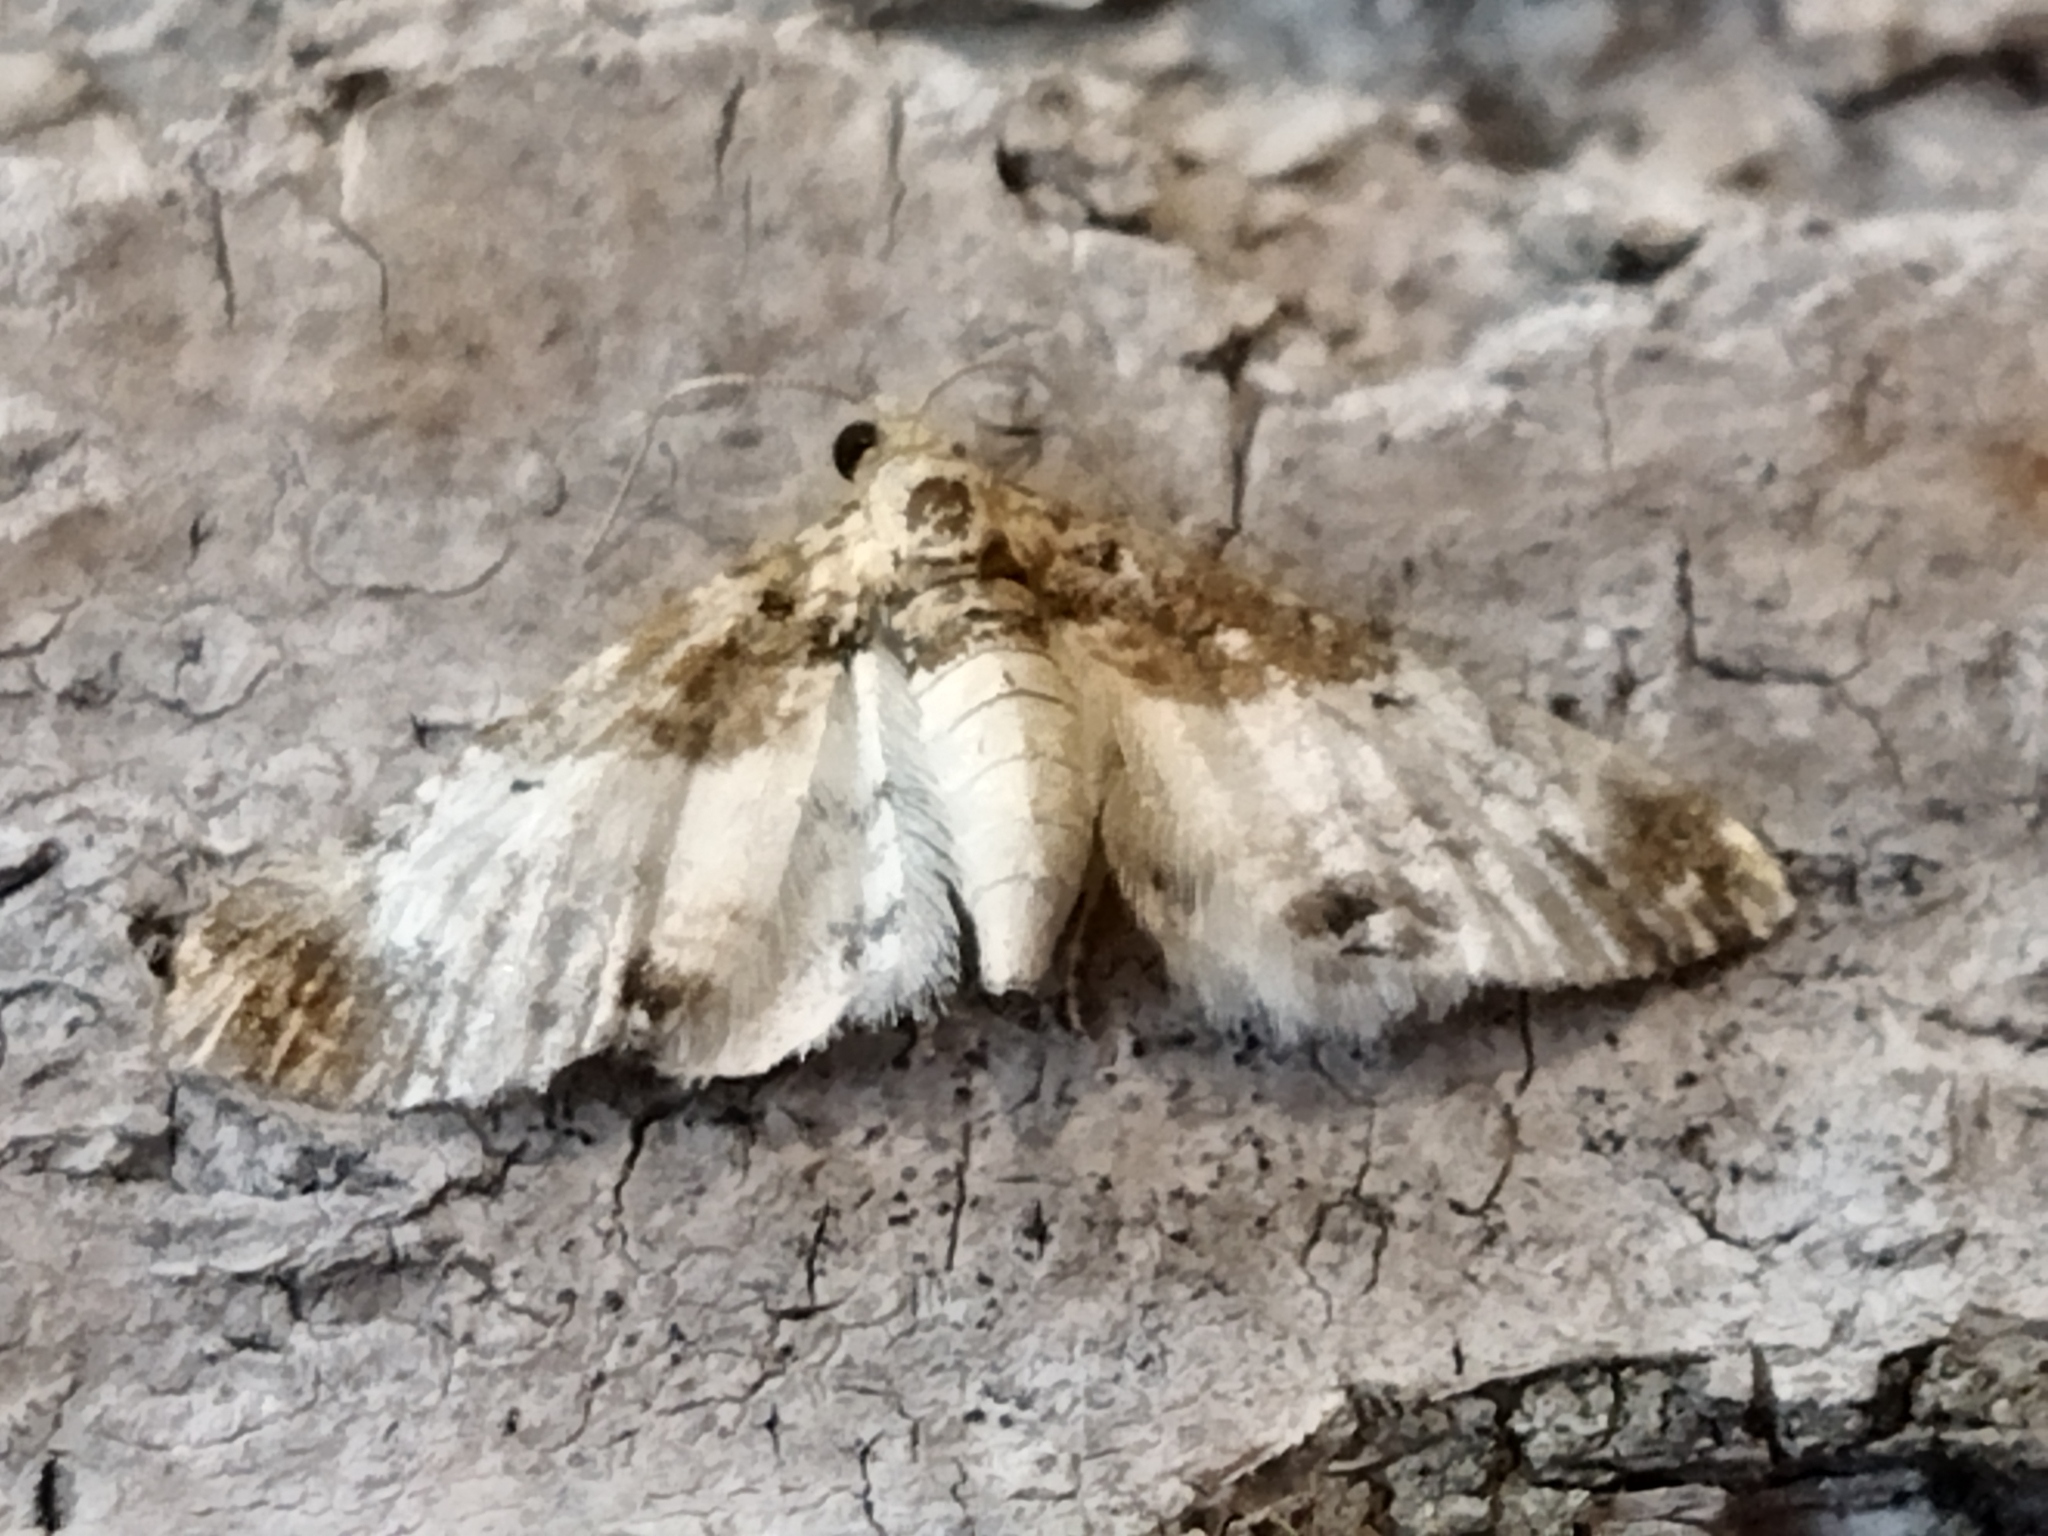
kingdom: Animalia
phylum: Arthropoda
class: Insecta
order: Lepidoptera
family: Geometridae
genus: Eupithecia
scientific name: Eupithecia breviculata
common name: Rusty-shouldered pug
